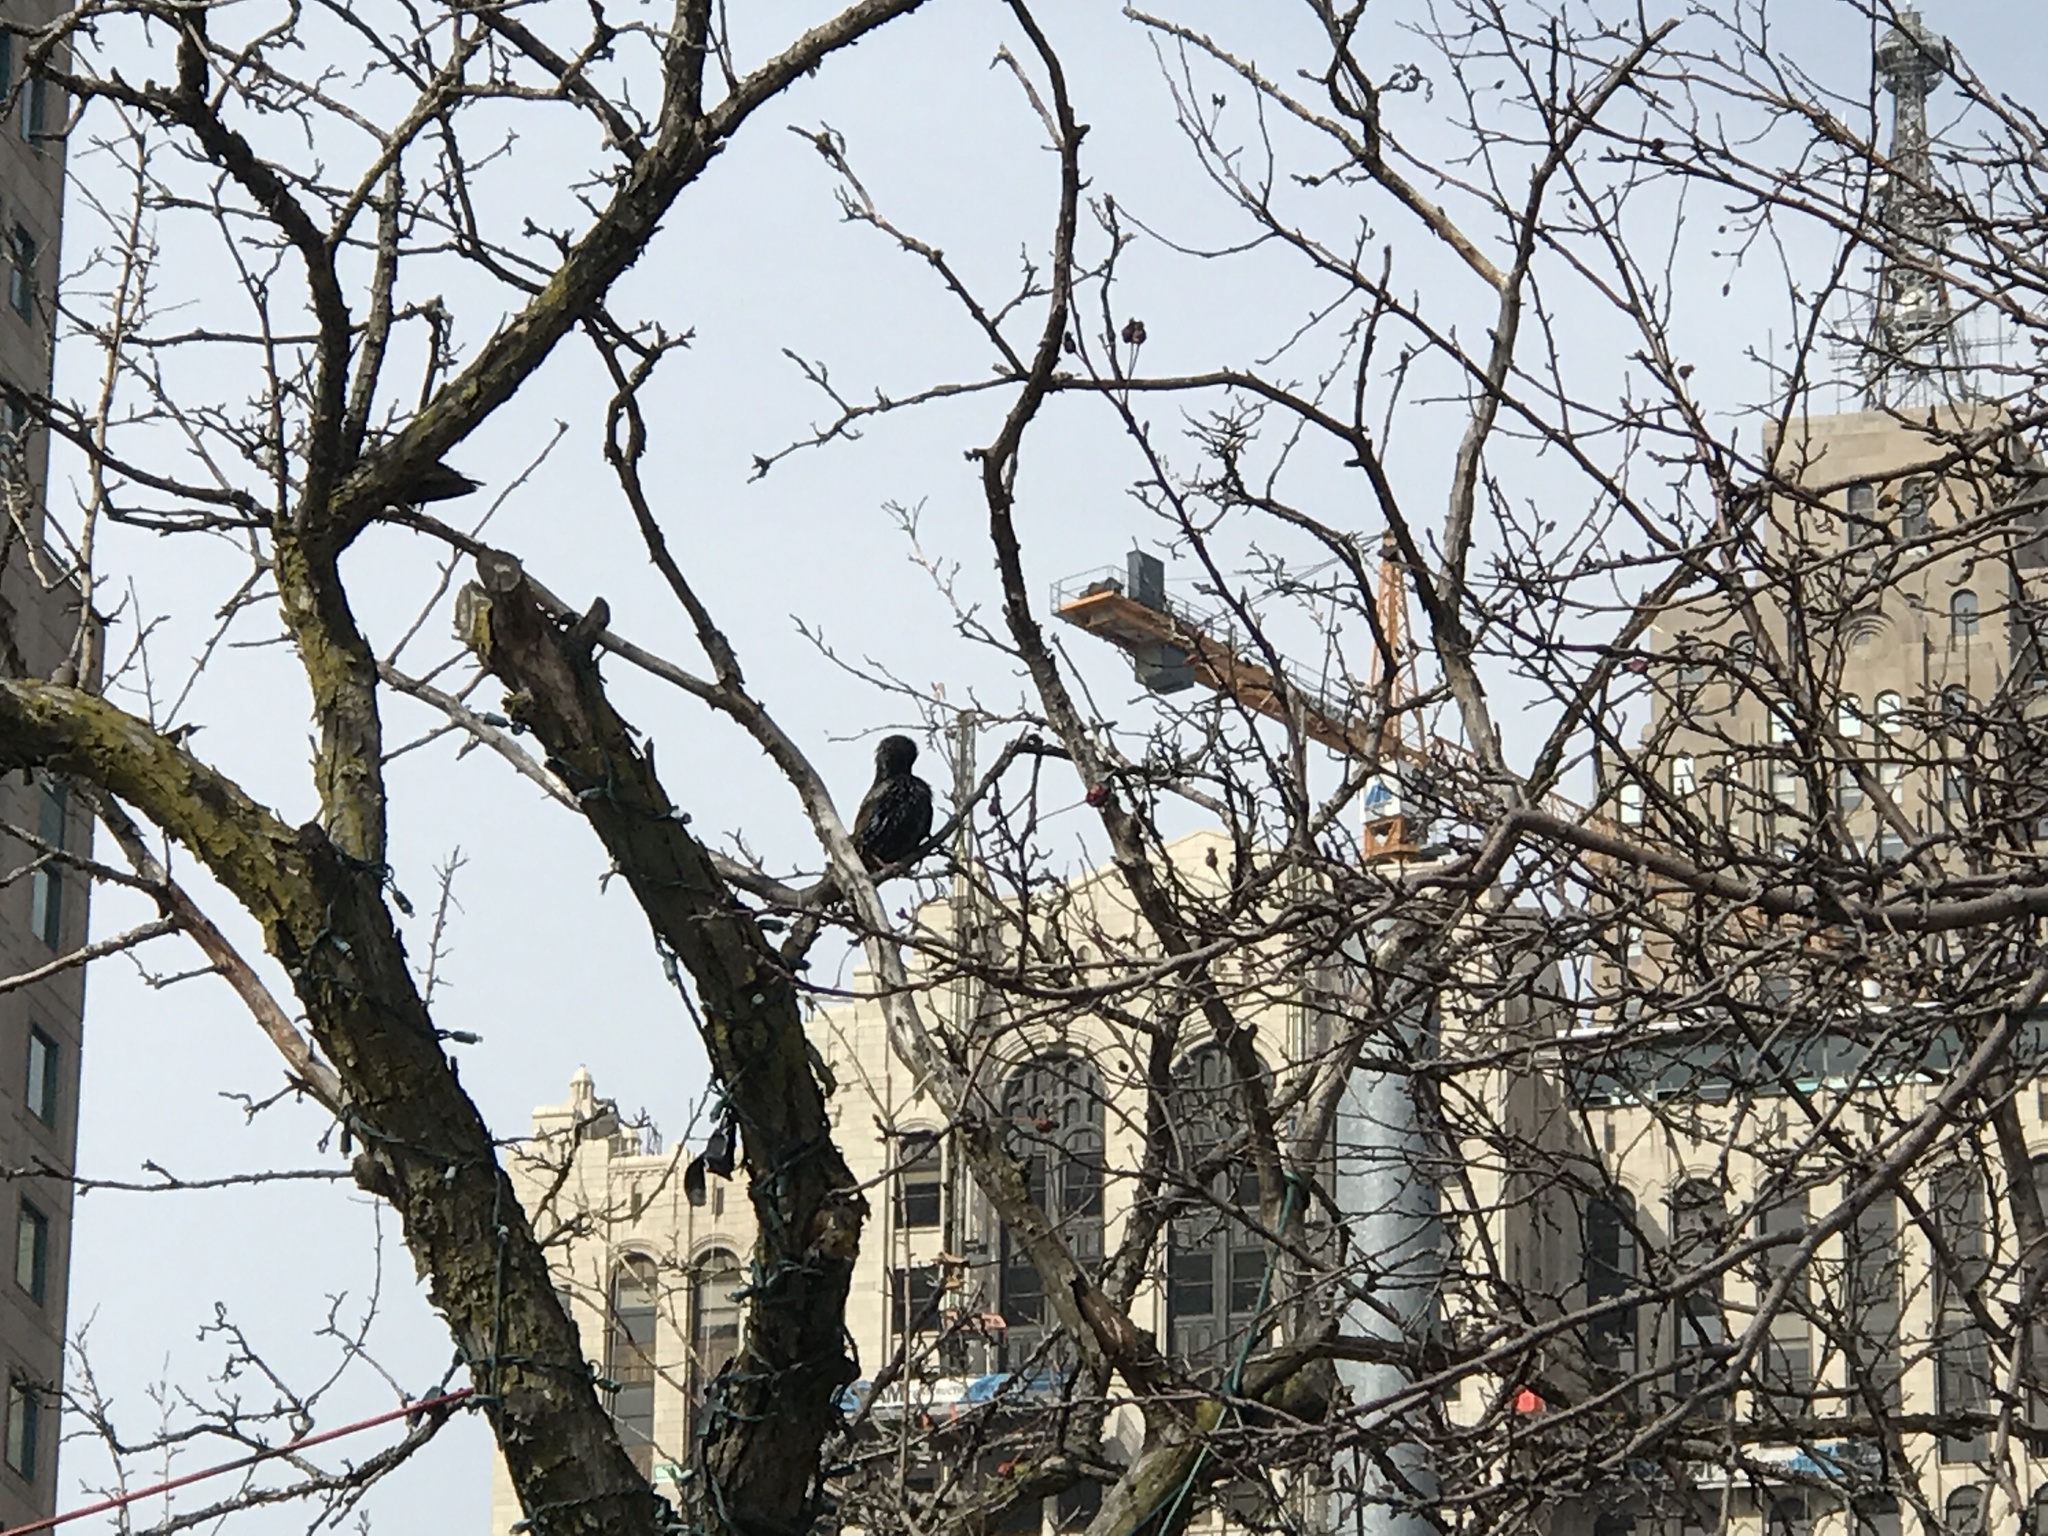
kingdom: Animalia
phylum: Chordata
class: Aves
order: Passeriformes
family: Sturnidae
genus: Sturnus
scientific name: Sturnus vulgaris
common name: Common starling
